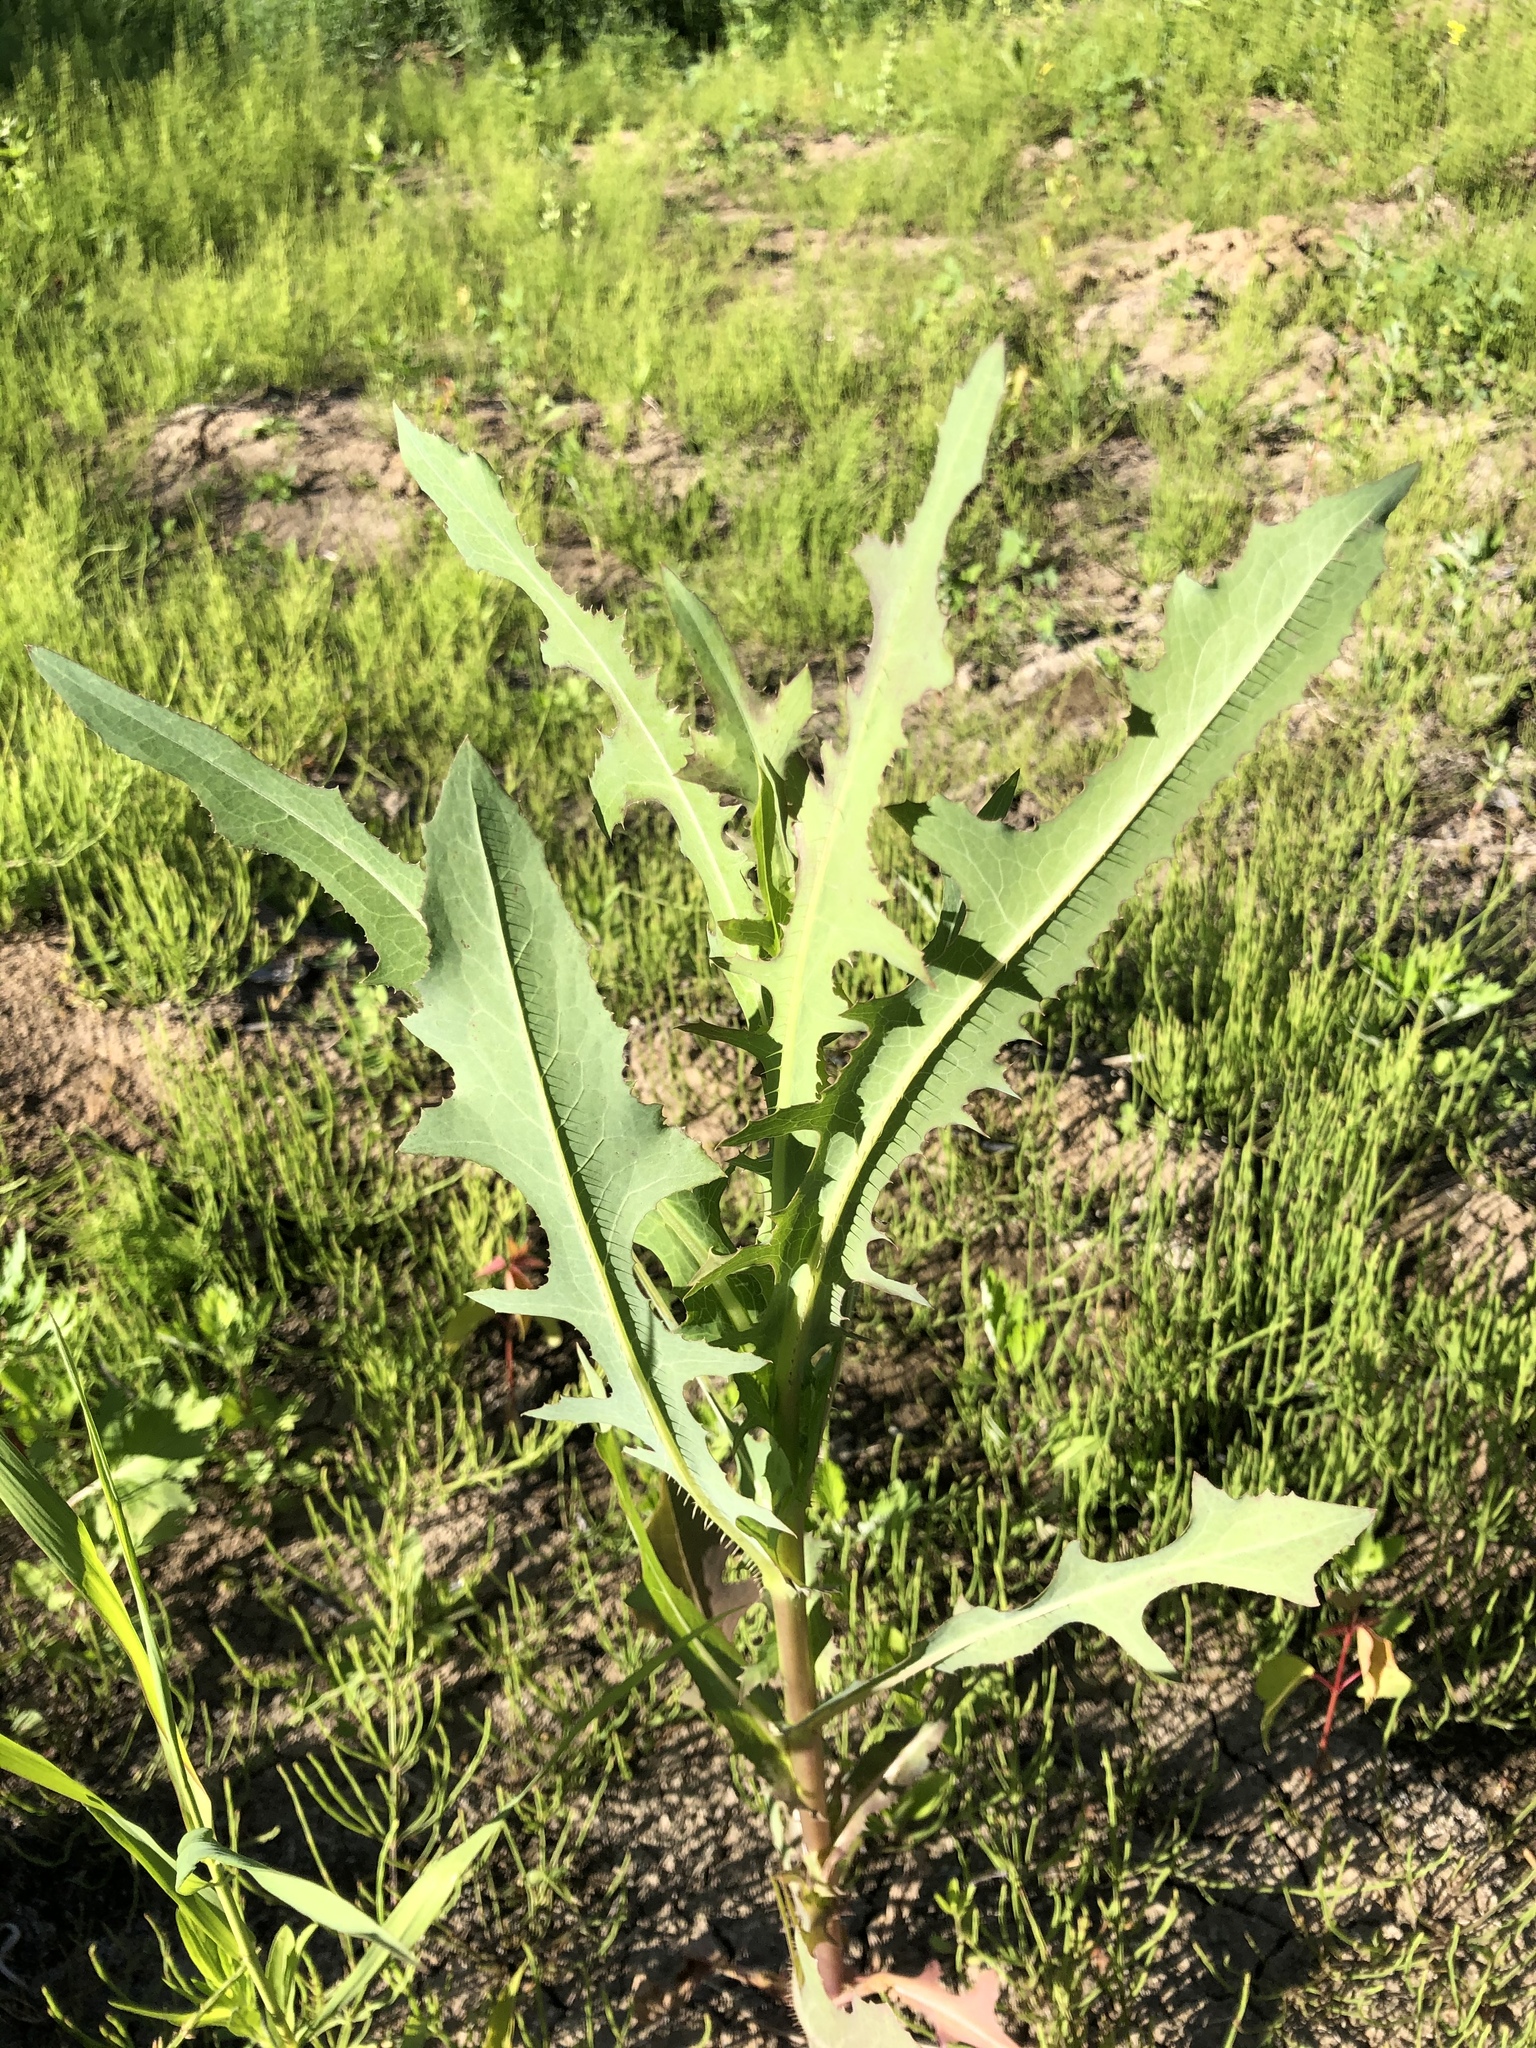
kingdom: Plantae
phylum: Tracheophyta
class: Magnoliopsida
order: Asterales
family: Asteraceae
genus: Lactuca
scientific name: Lactuca serriola
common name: Prickly lettuce
